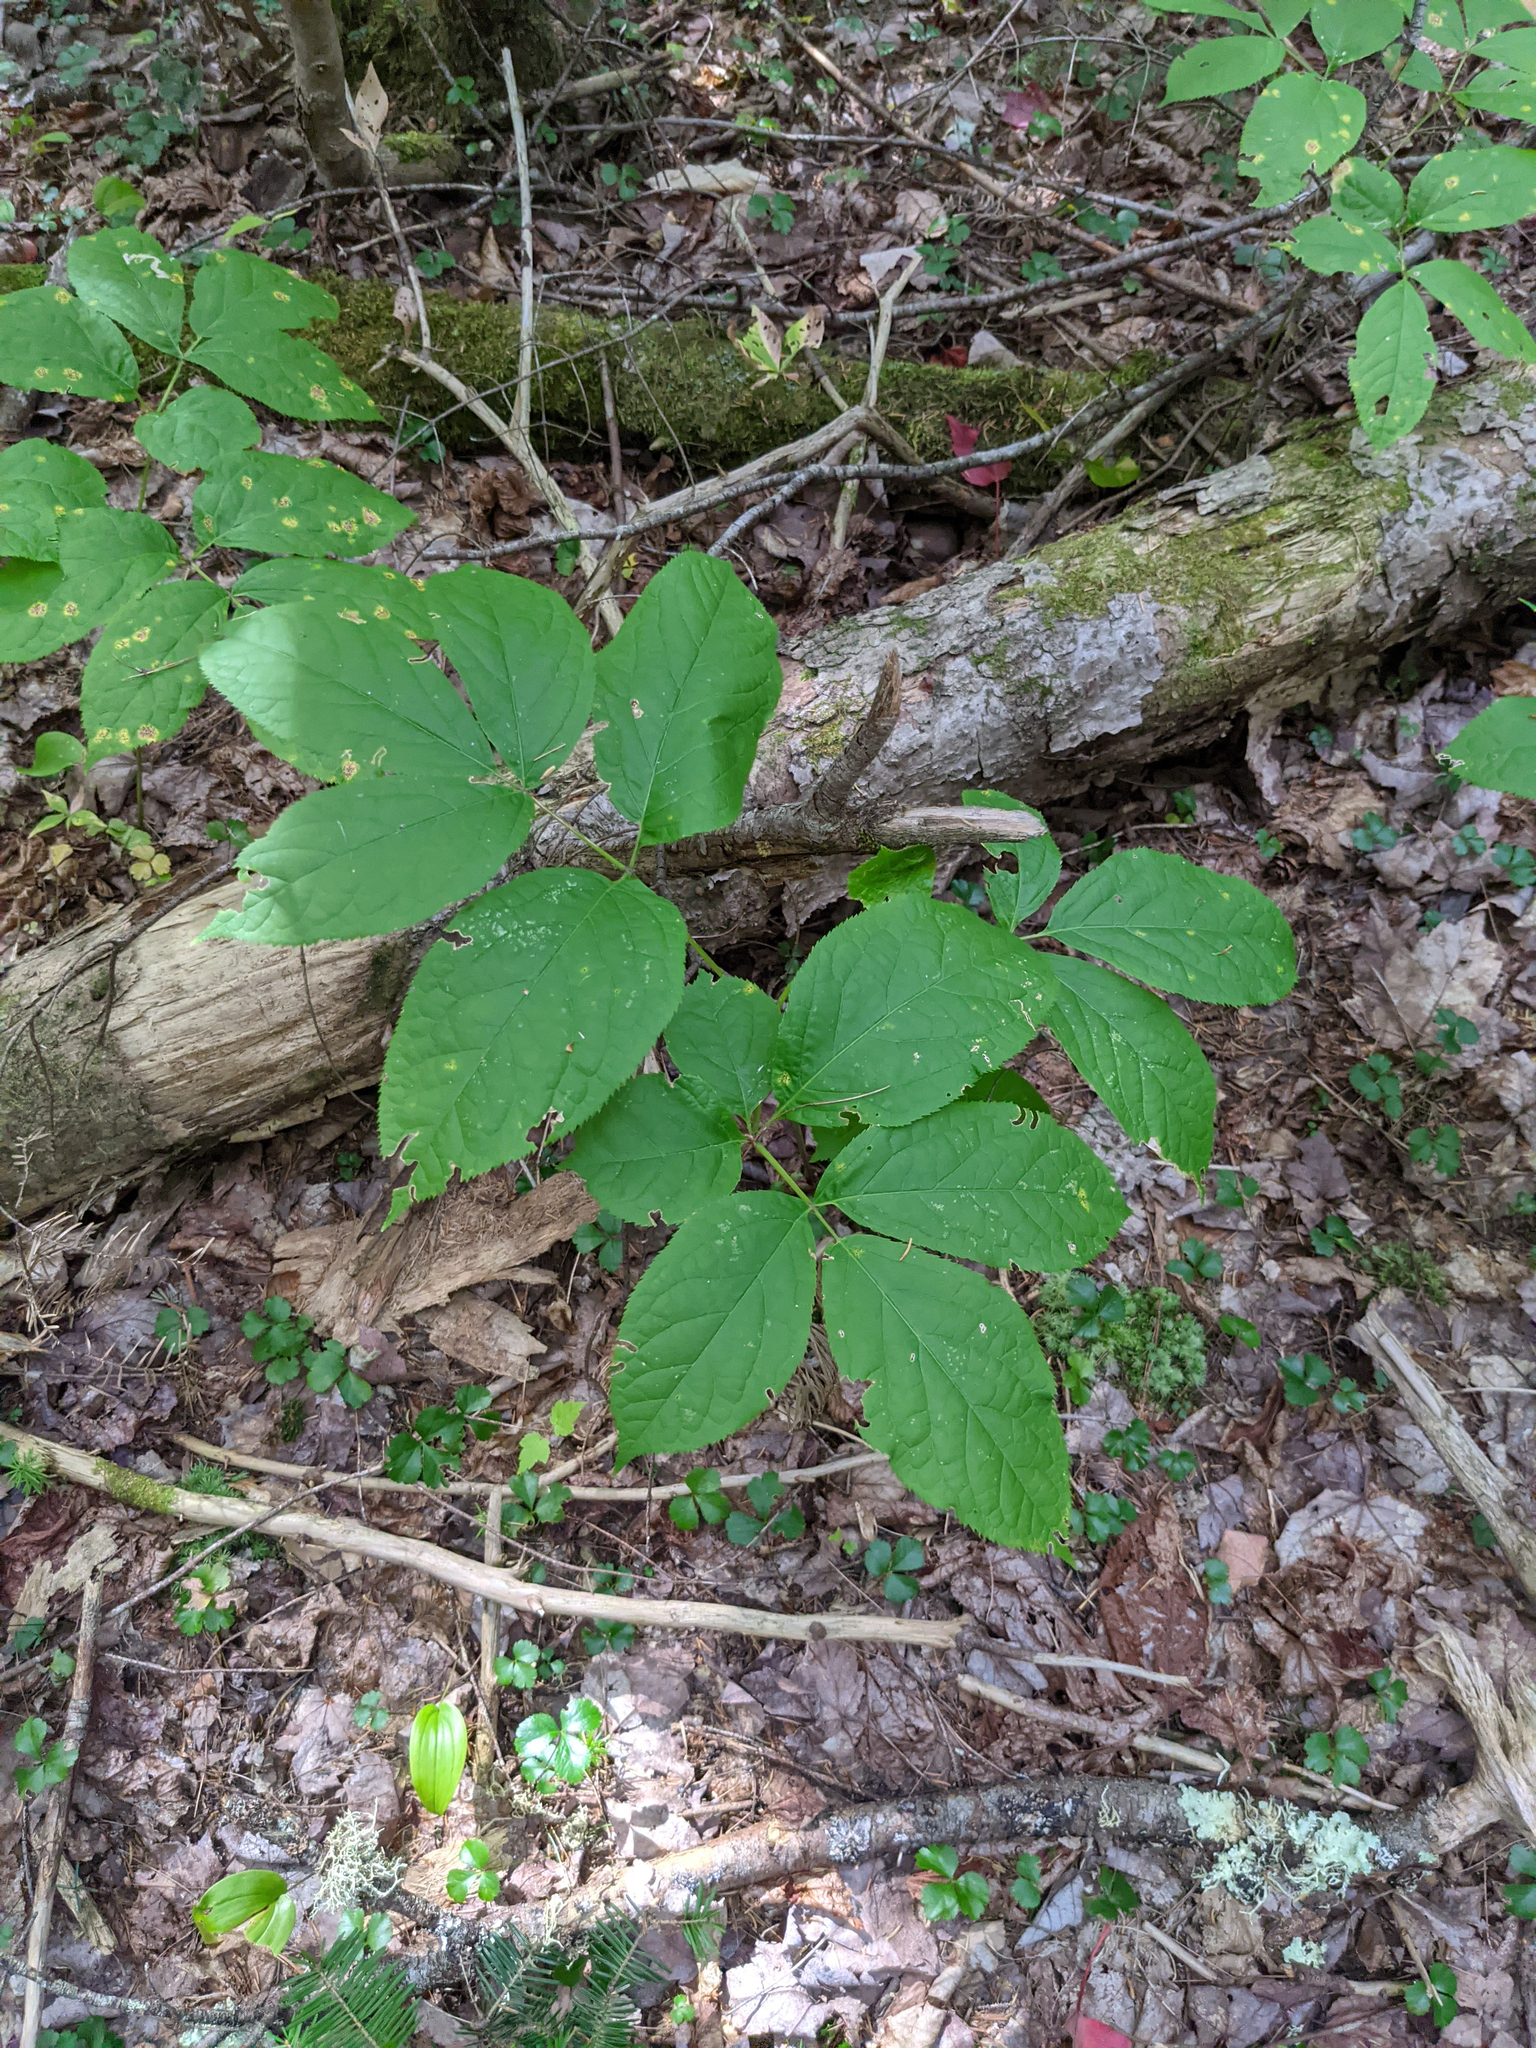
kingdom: Plantae
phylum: Tracheophyta
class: Magnoliopsida
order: Apiales
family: Araliaceae
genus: Aralia
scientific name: Aralia nudicaulis
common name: Wild sarsaparilla
